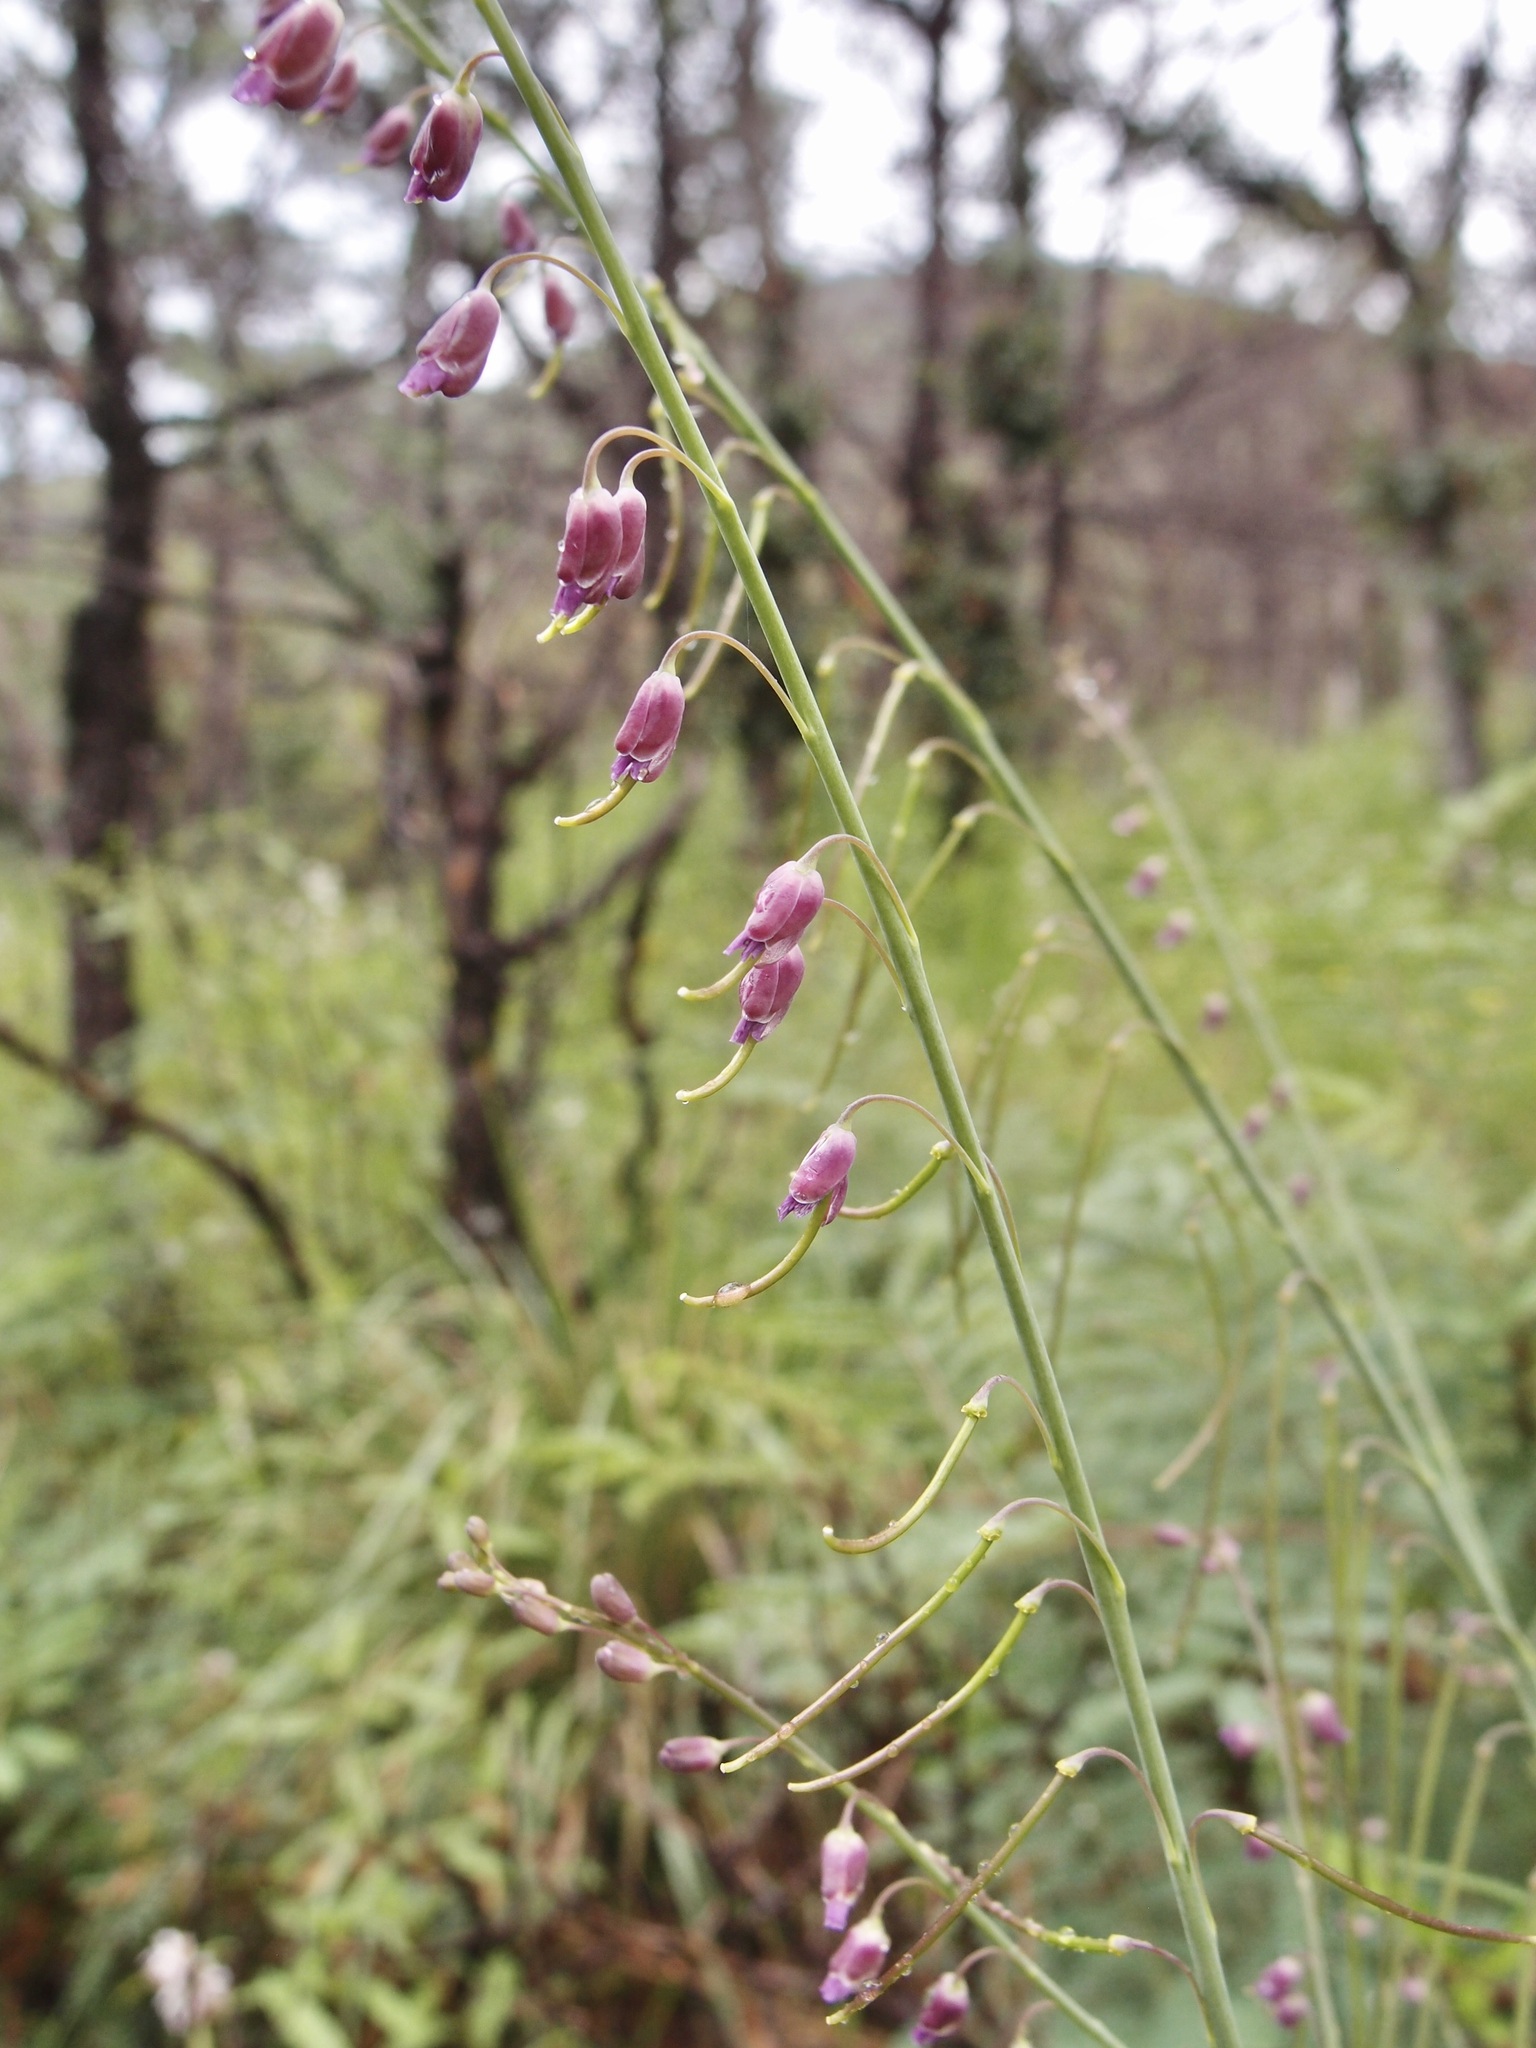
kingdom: Plantae
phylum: Tracheophyta
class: Magnoliopsida
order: Brassicales
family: Brassicaceae
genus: Pennellia
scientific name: Pennellia longifolia
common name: Longleaf mock thelypody
